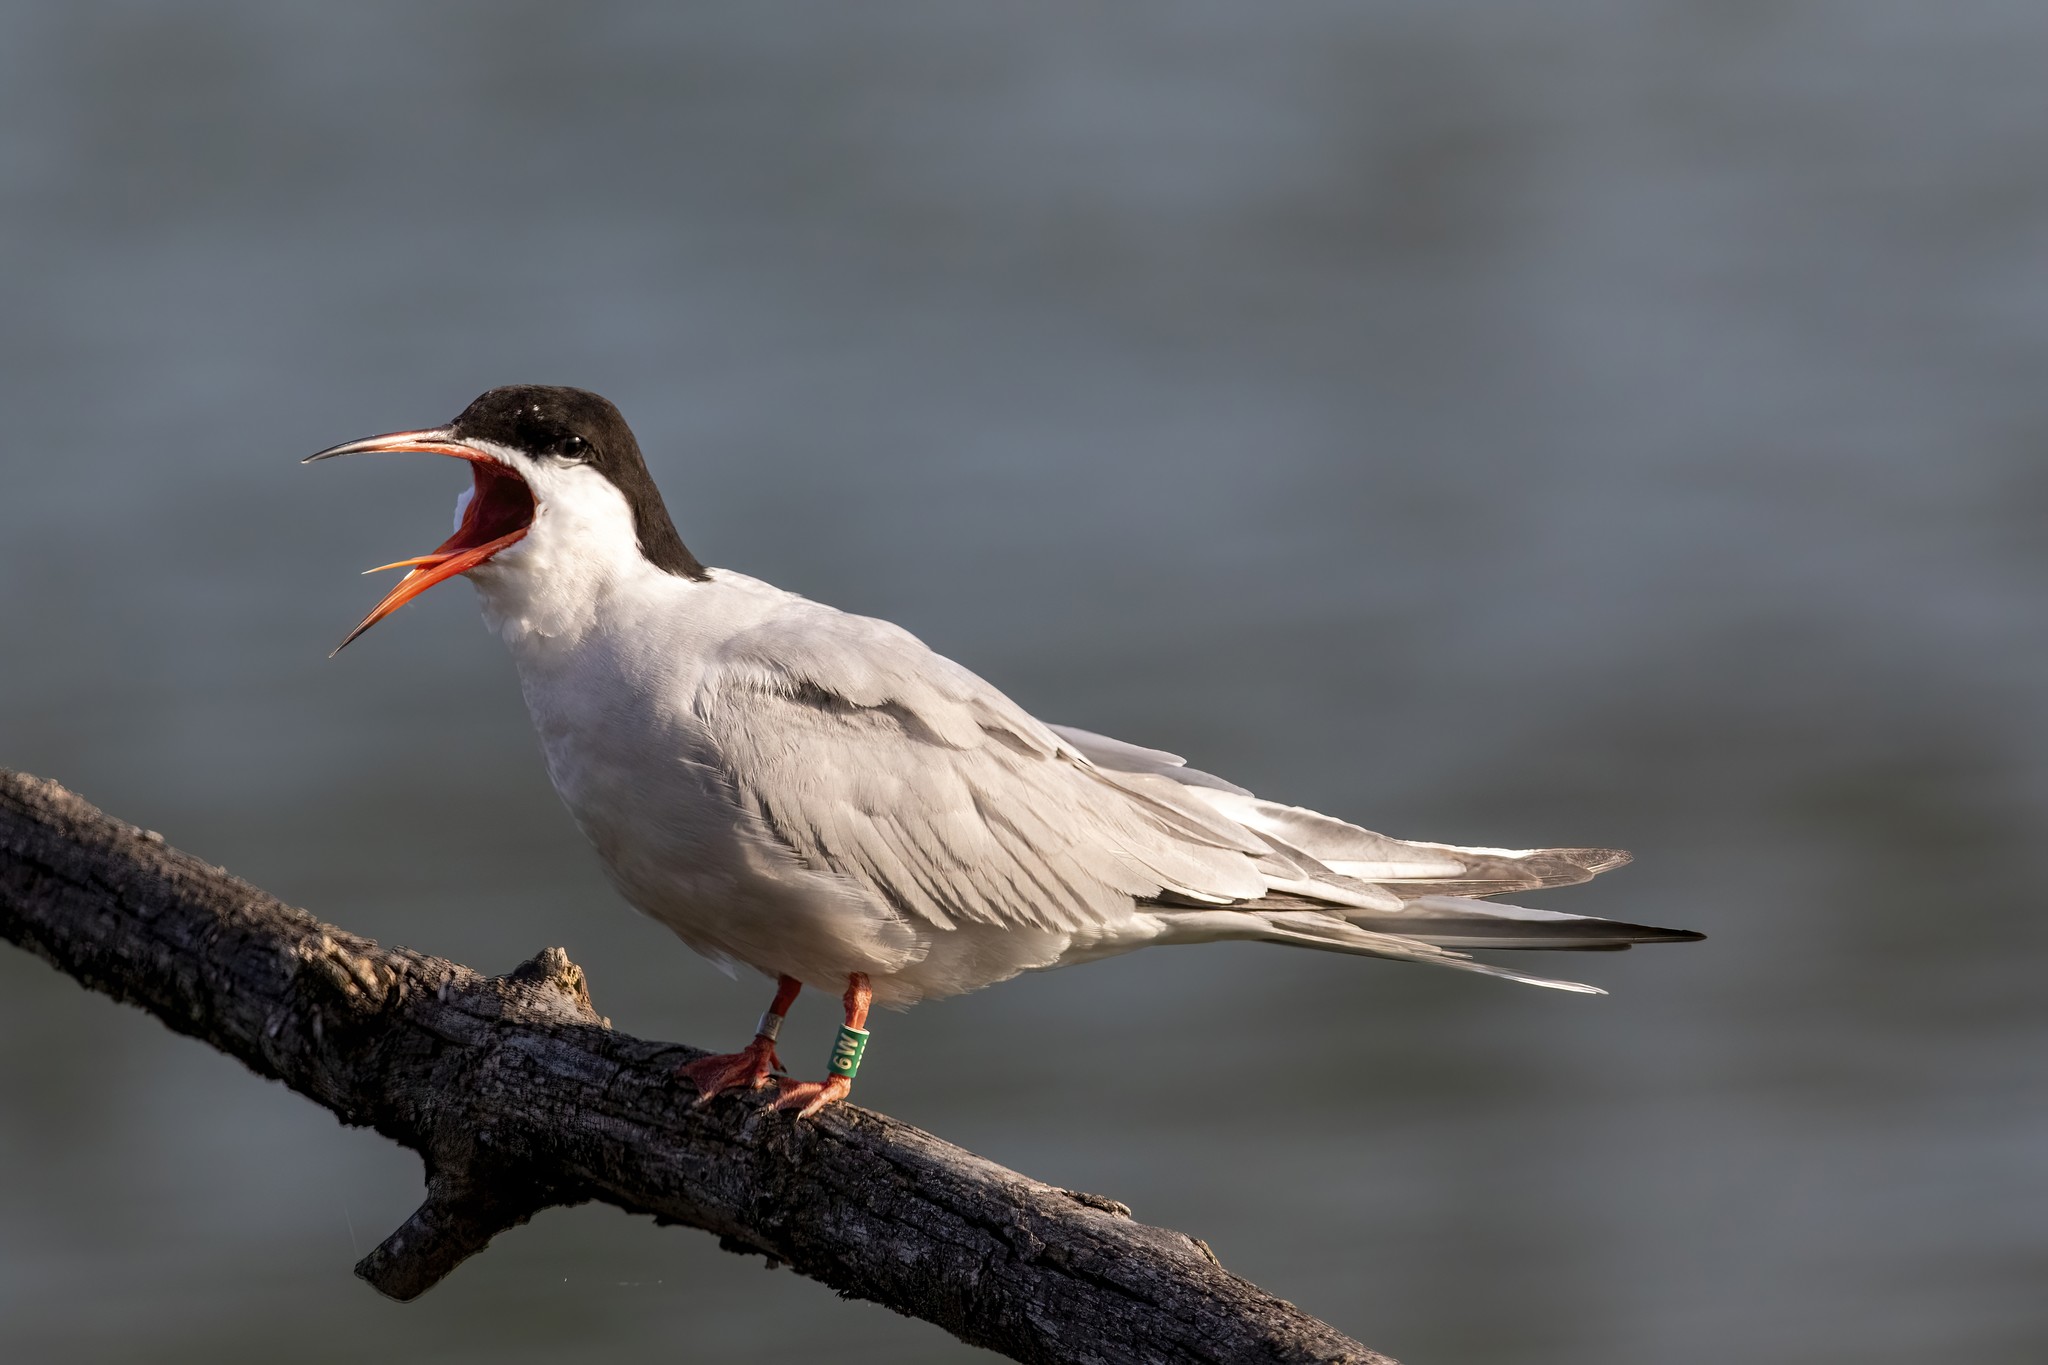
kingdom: Animalia
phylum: Chordata
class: Aves
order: Charadriiformes
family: Laridae
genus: Sterna
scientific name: Sterna hirundo
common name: Common tern
